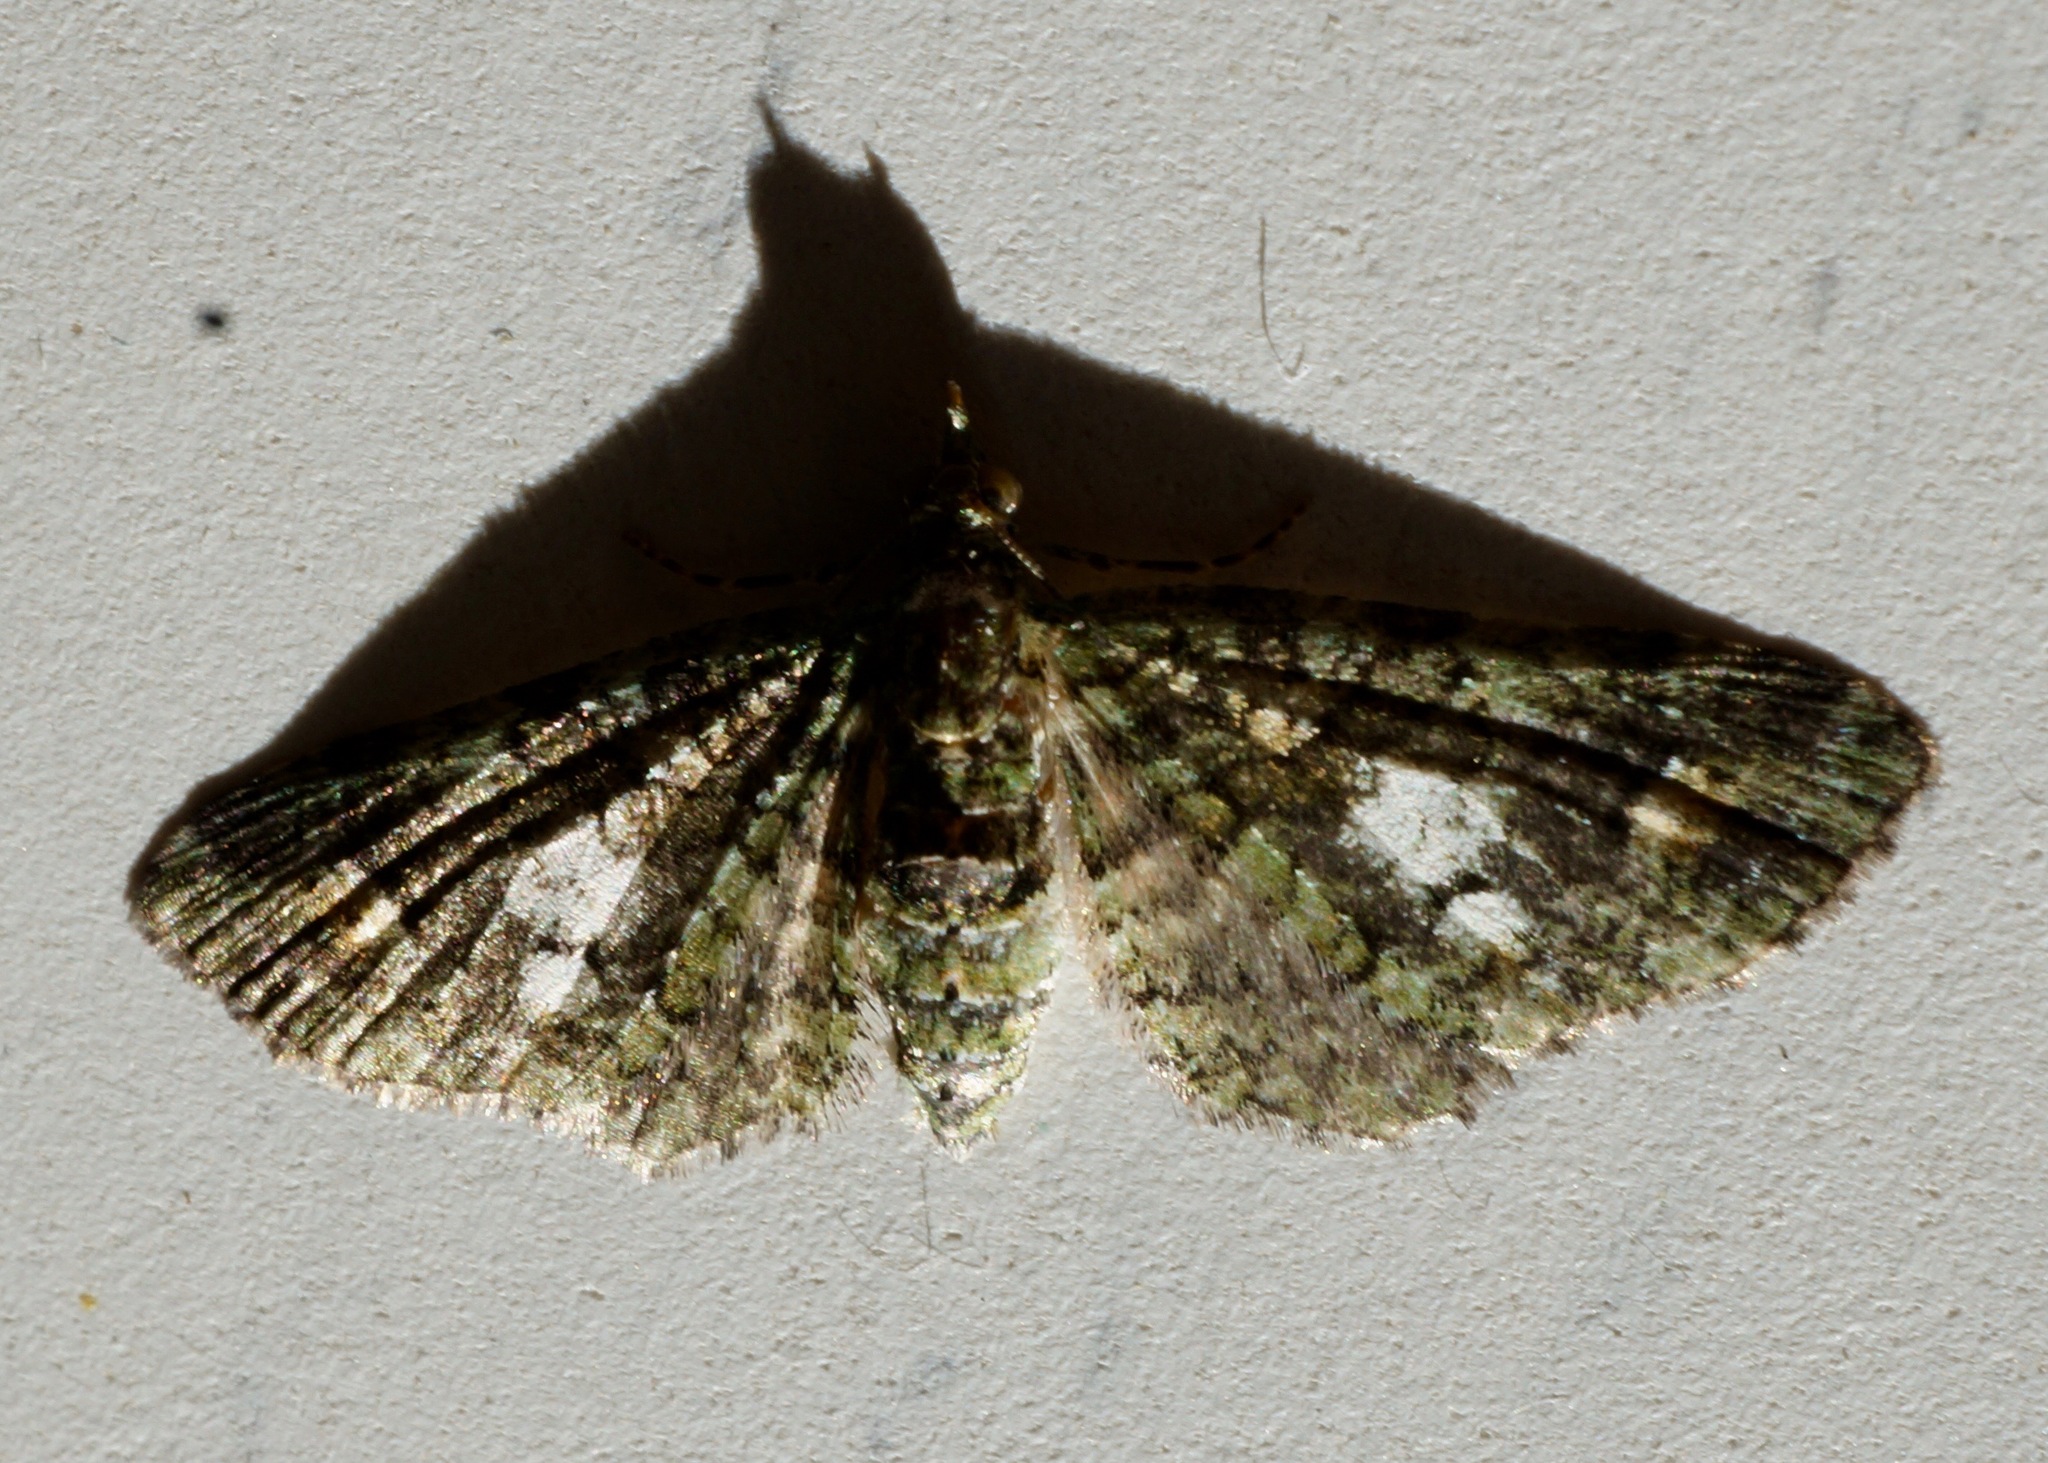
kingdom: Animalia
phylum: Arthropoda
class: Insecta
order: Lepidoptera
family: Geometridae
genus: Idaea
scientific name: Idaea mutanda
